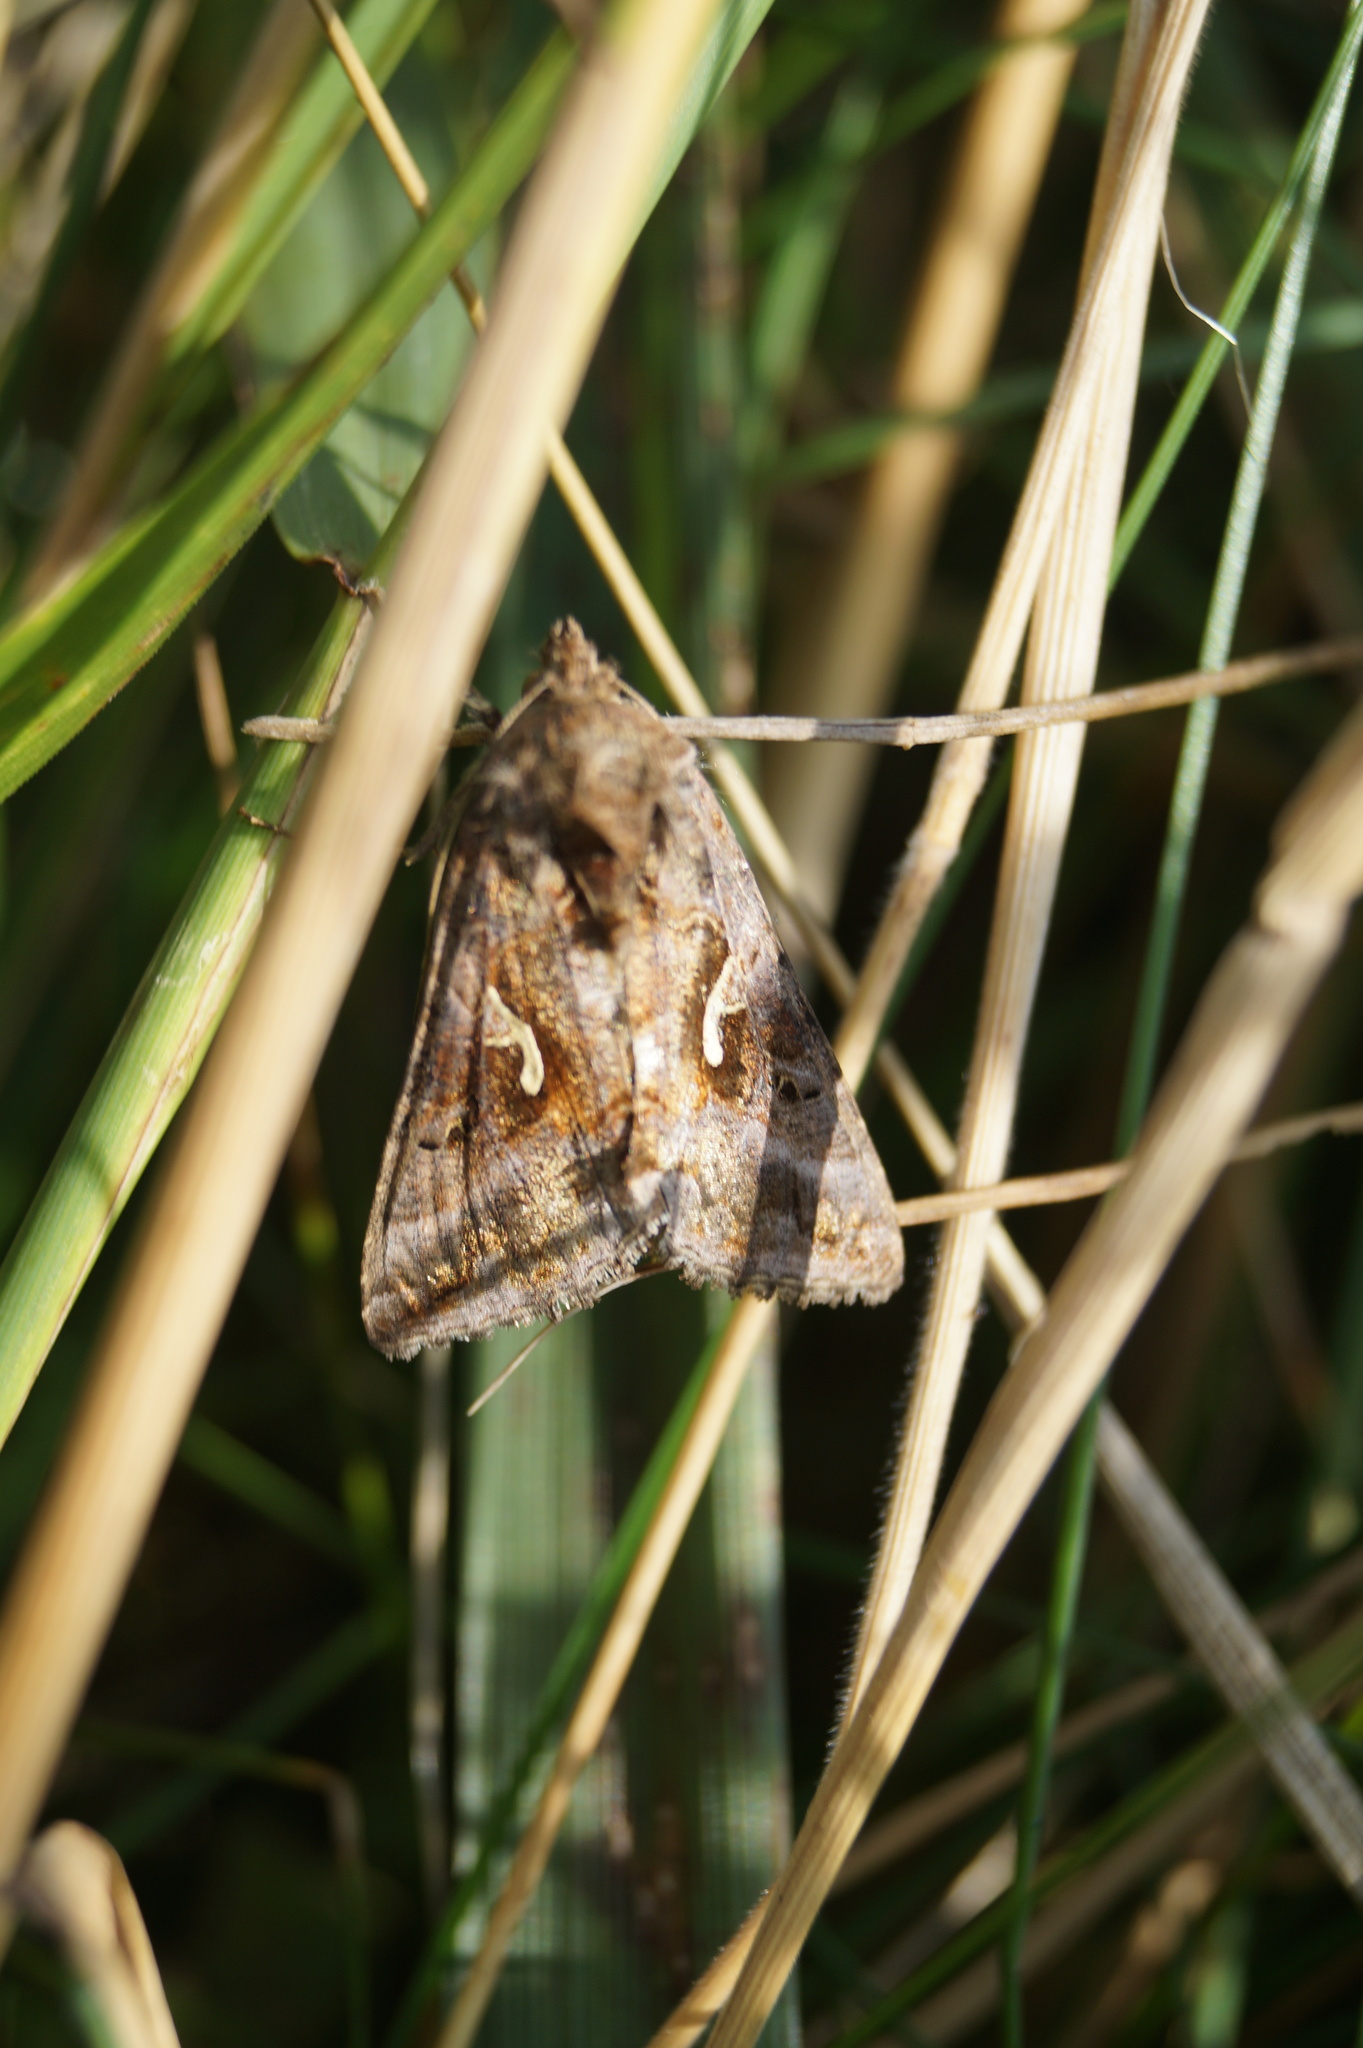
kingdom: Animalia
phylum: Arthropoda
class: Insecta
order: Lepidoptera
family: Noctuidae
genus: Autographa
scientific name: Autographa gamma
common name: Silver y
